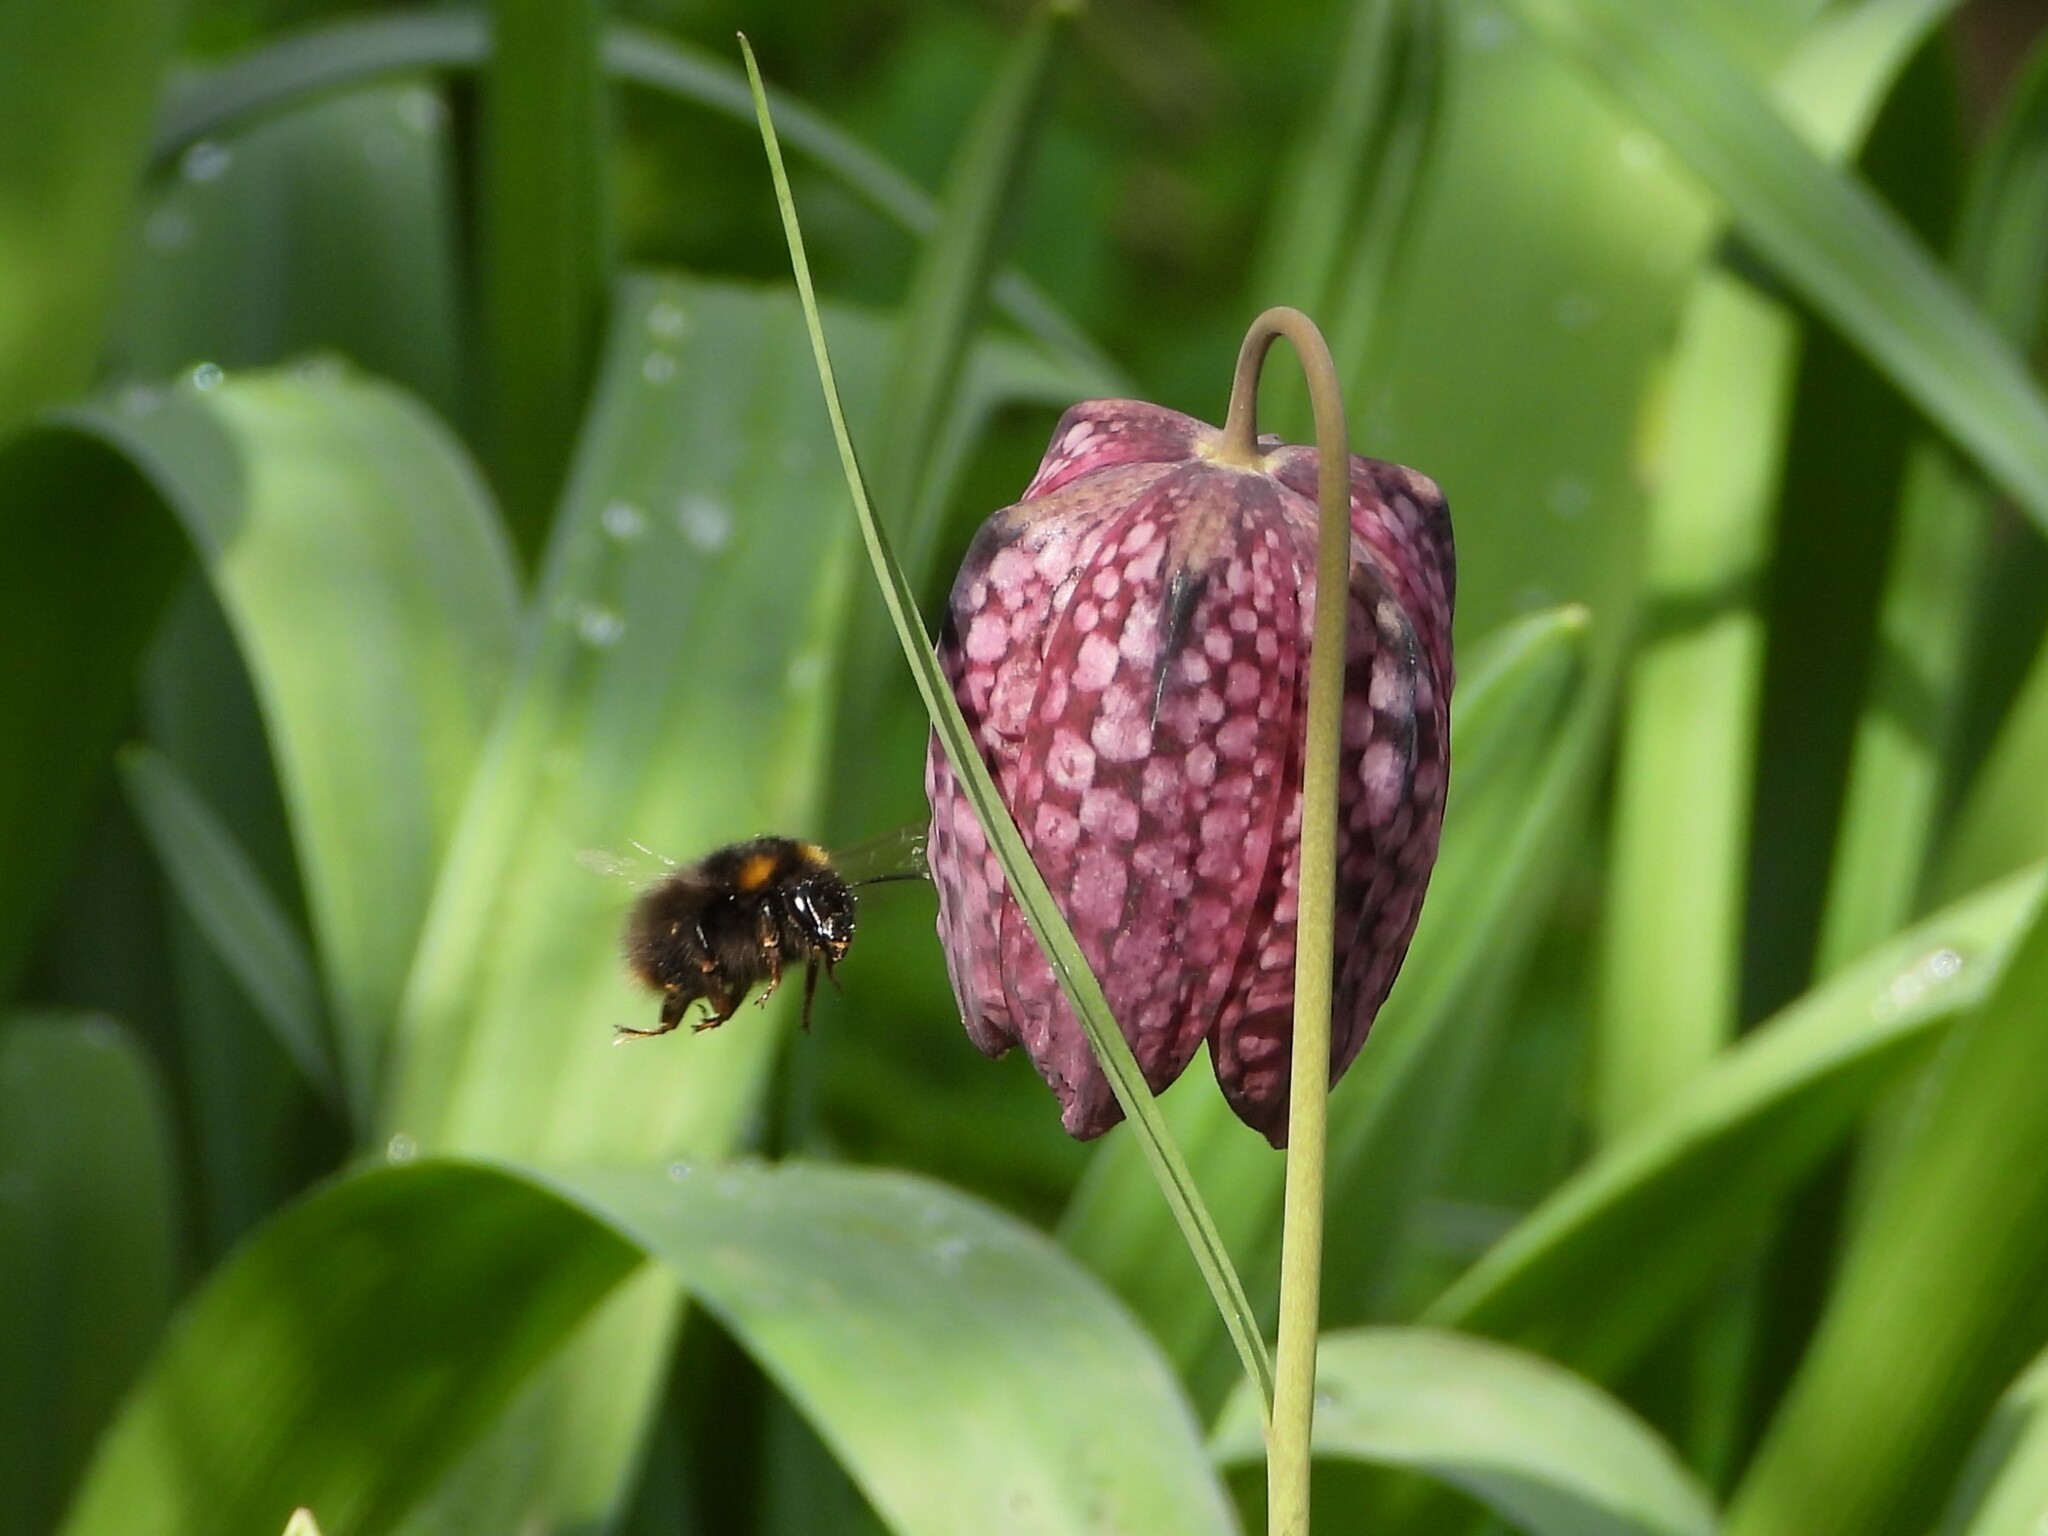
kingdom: Animalia
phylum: Arthropoda
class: Insecta
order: Hymenoptera
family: Apidae
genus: Bombus
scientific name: Bombus pratorum
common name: Early humble-bee
